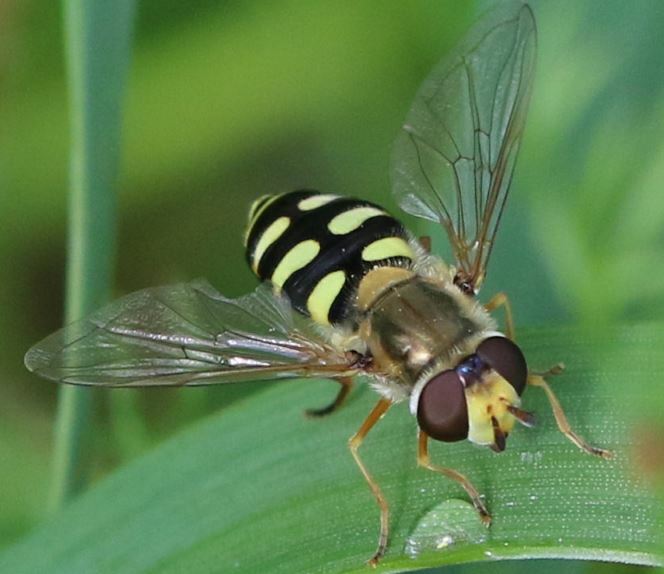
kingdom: Animalia
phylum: Arthropoda
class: Insecta
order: Diptera
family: Syrphidae
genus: Eupeodes
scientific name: Eupeodes corollae
